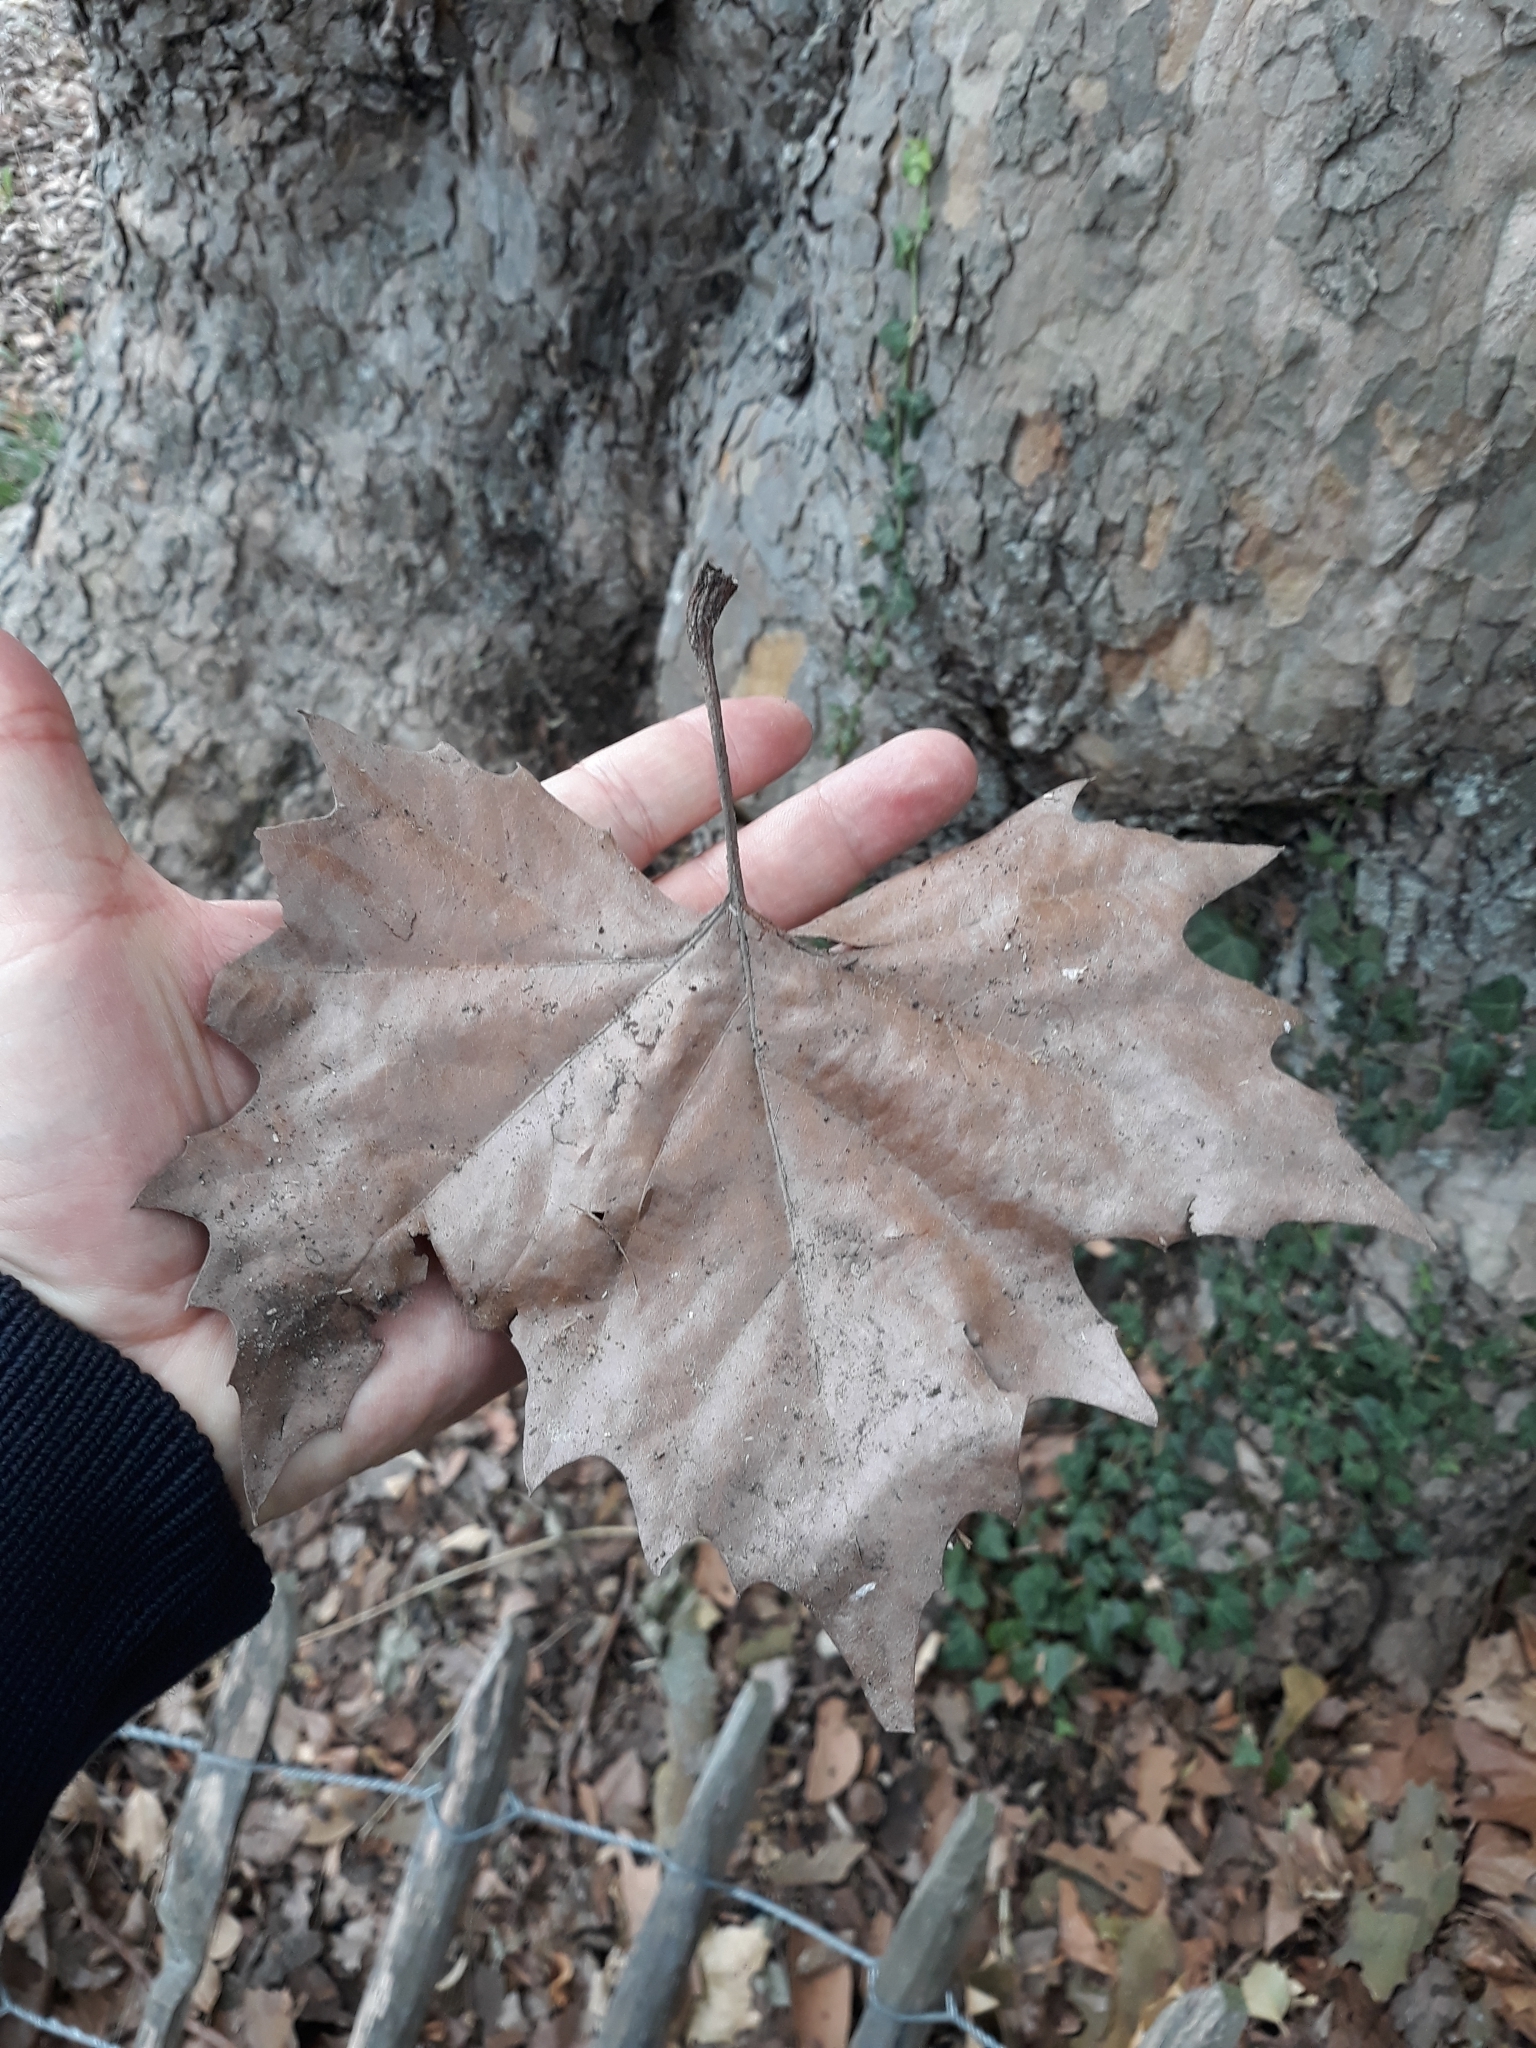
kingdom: Plantae
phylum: Tracheophyta
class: Magnoliopsida
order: Proteales
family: Platanaceae
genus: Platanus
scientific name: Platanus hispanica
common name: London plane
